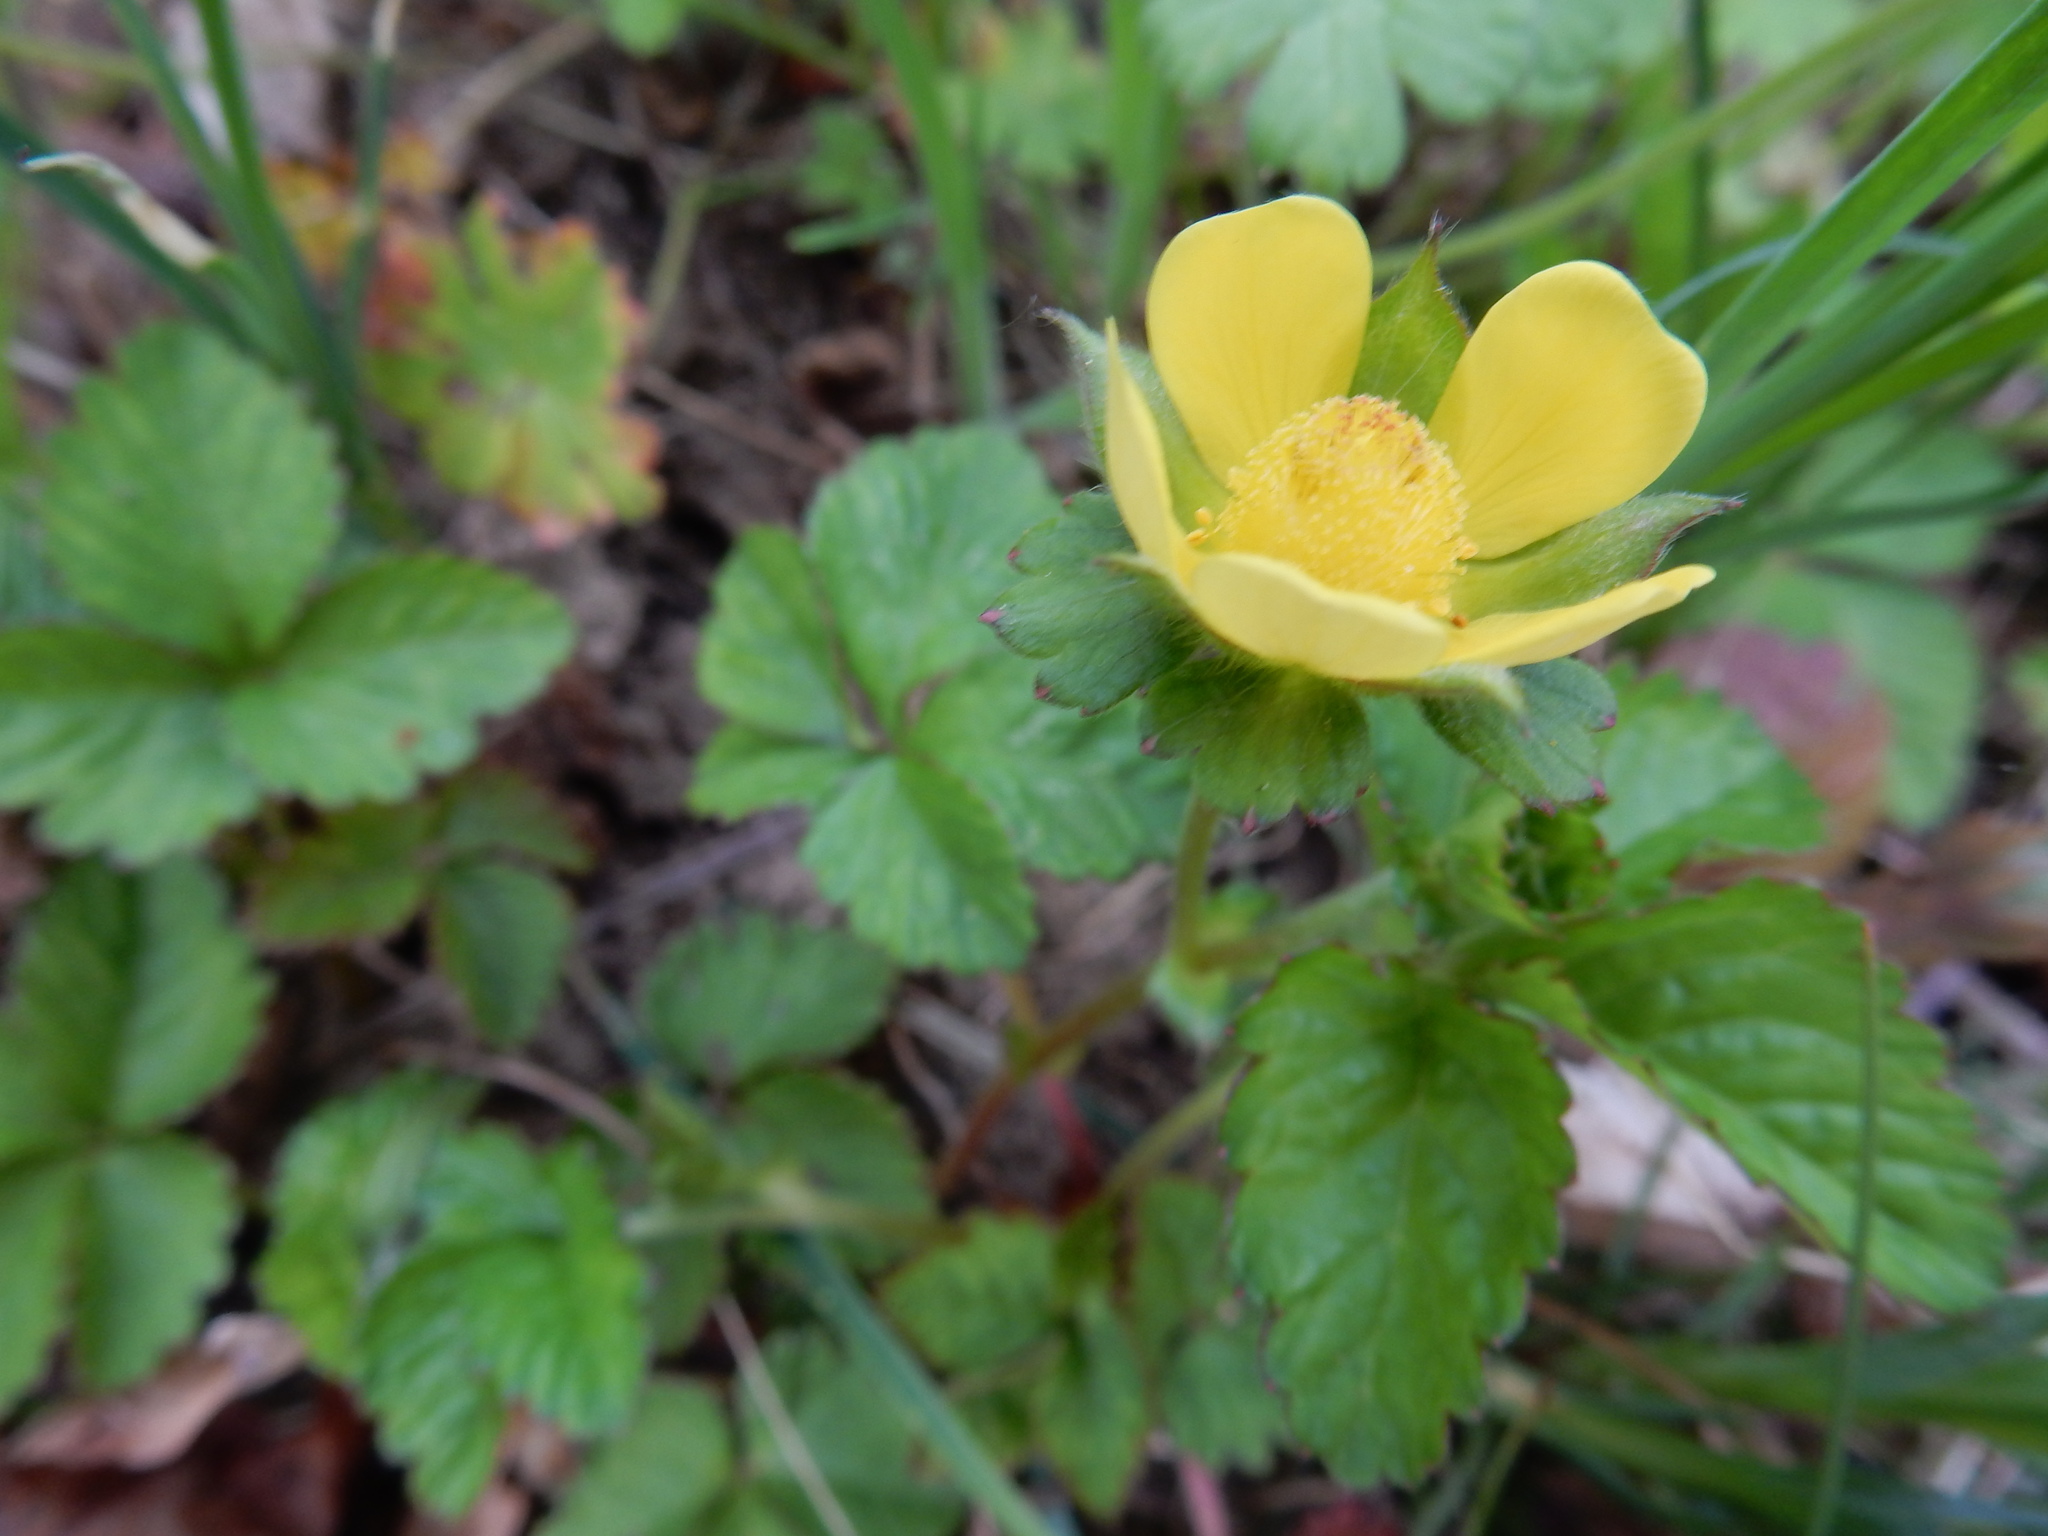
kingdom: Plantae
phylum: Tracheophyta
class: Magnoliopsida
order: Rosales
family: Rosaceae
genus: Potentilla
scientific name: Potentilla indica
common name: Yellow-flowered strawberry
